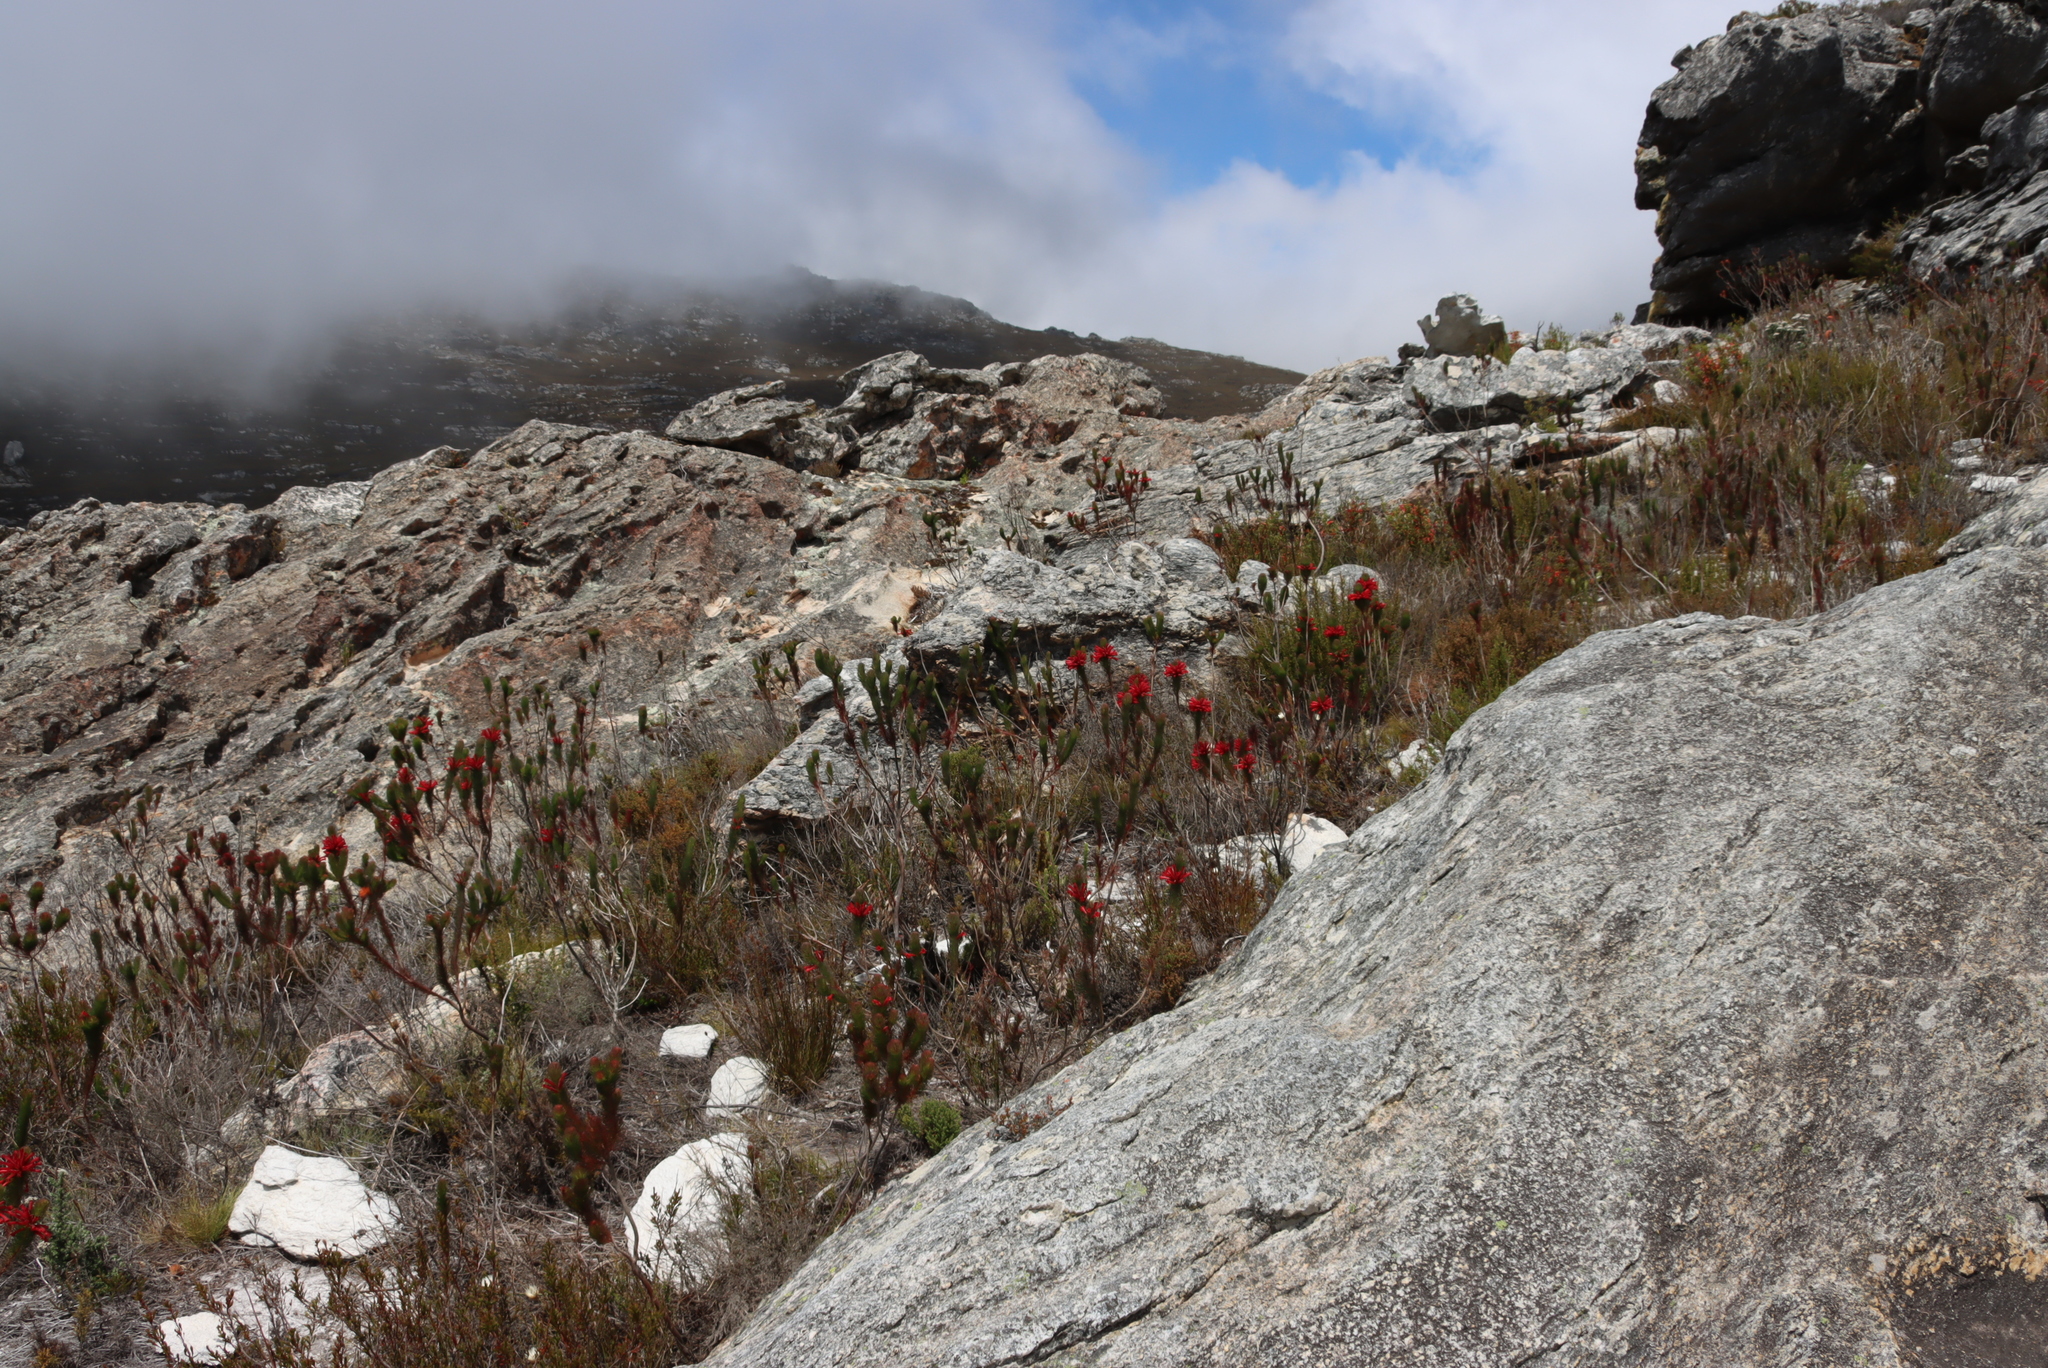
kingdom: Plantae
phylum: Tracheophyta
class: Magnoliopsida
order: Ericales
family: Ericaceae
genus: Erica
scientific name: Erica vestita
